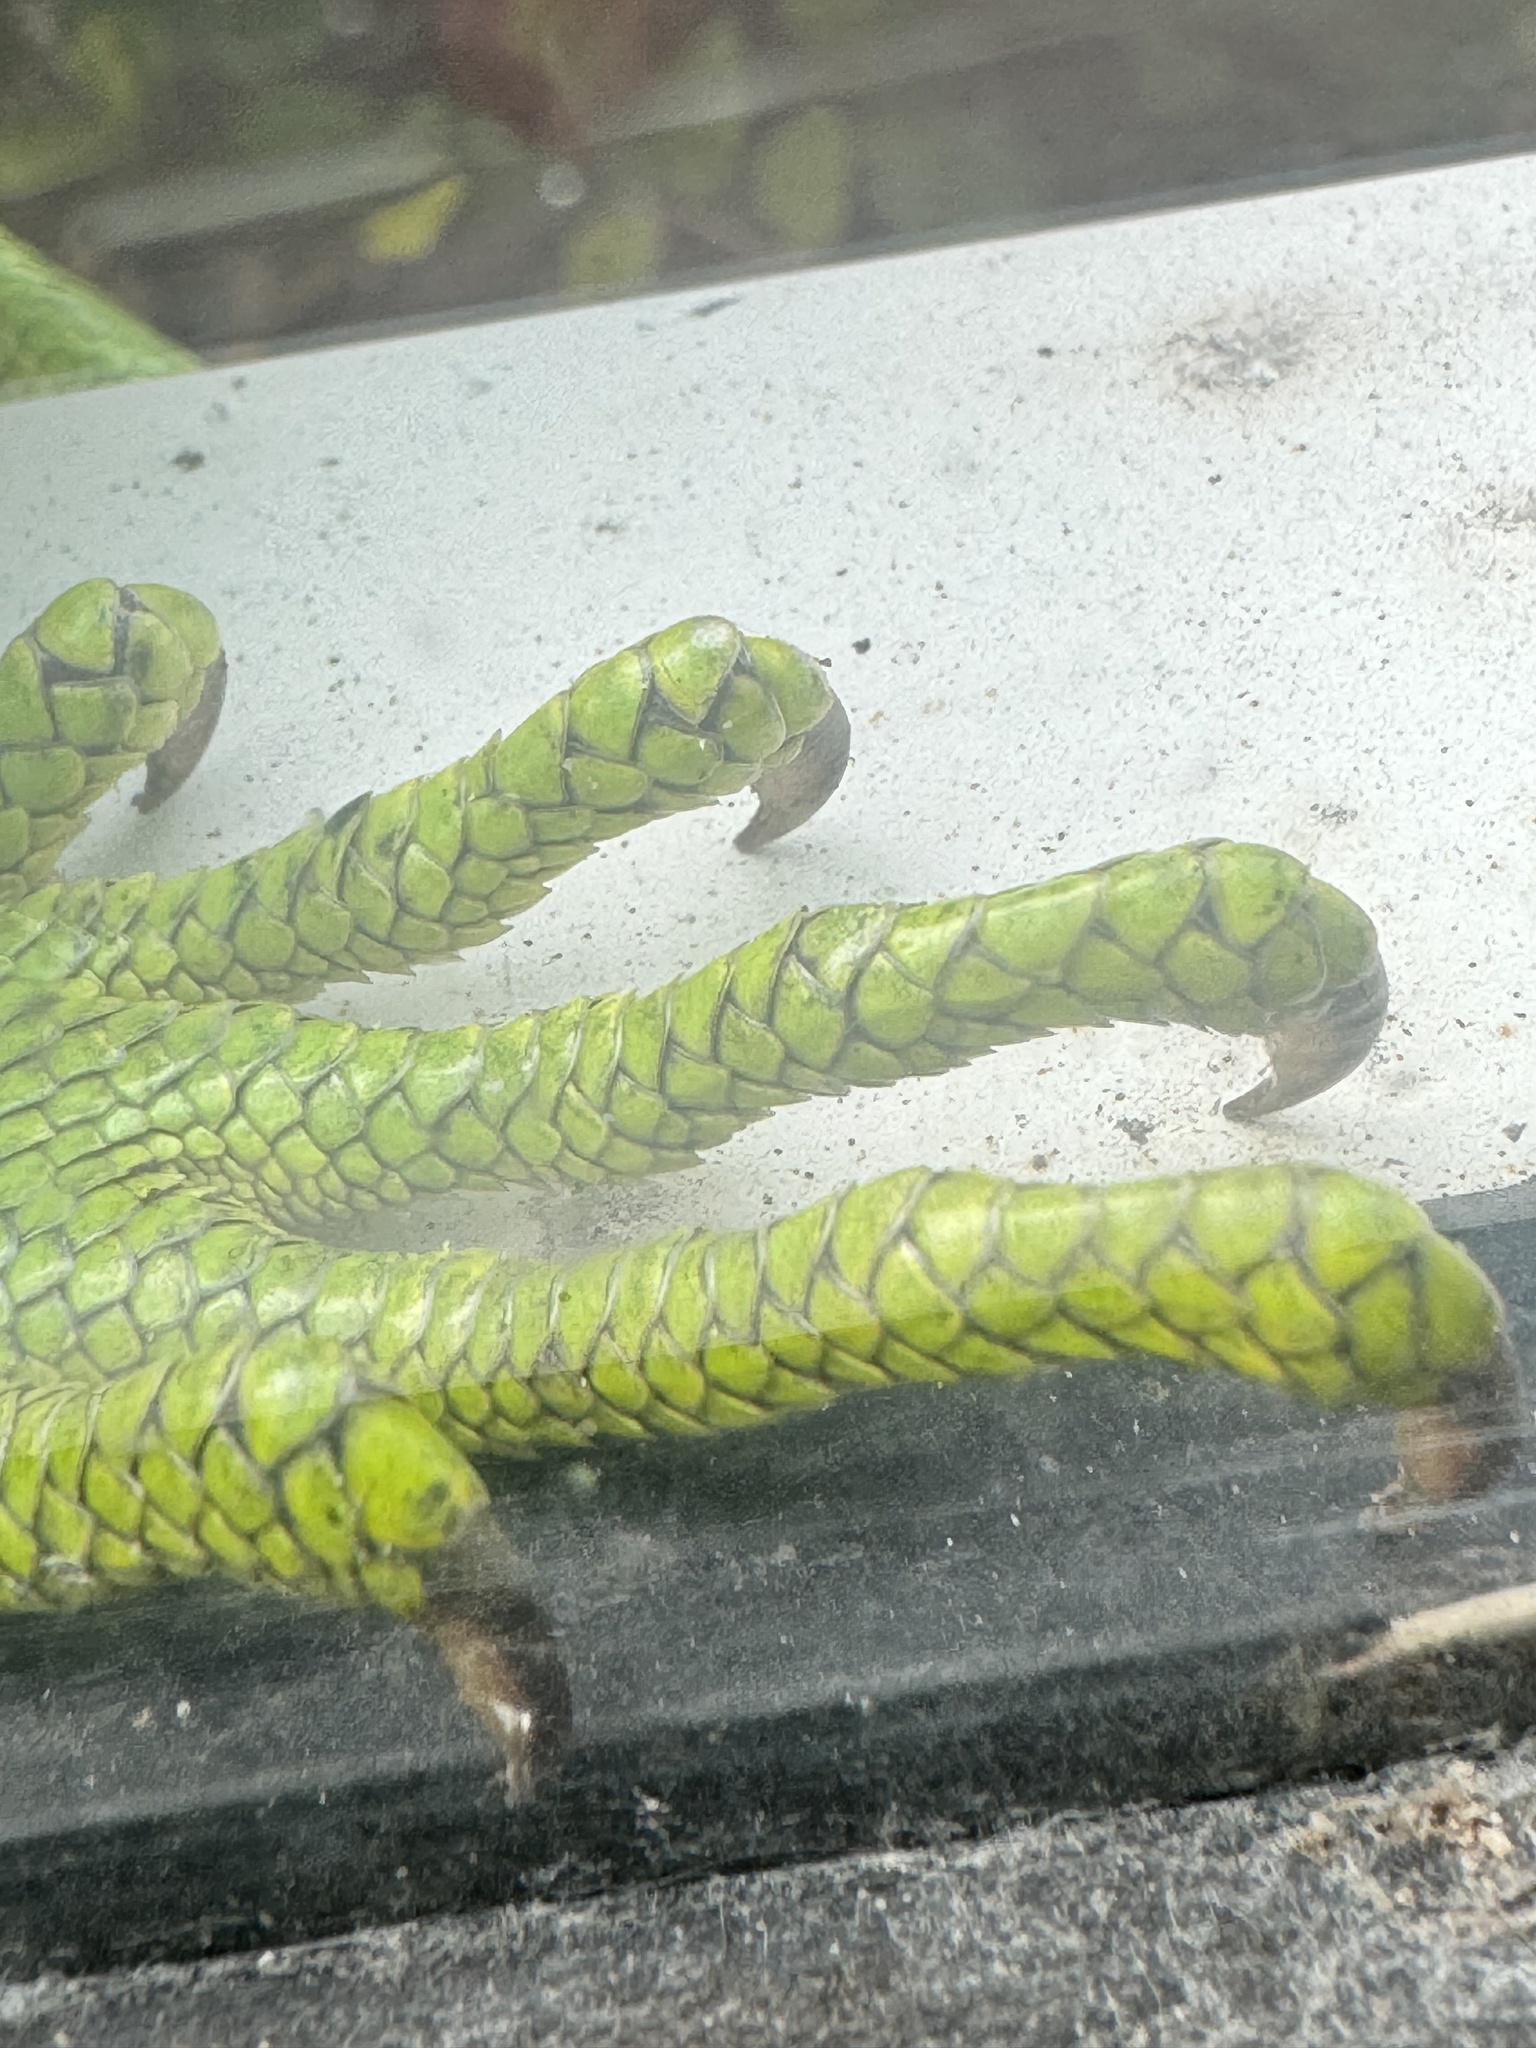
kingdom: Animalia
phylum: Chordata
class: Squamata
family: Iguanidae
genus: Iguana
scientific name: Iguana iguana
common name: Green iguana
